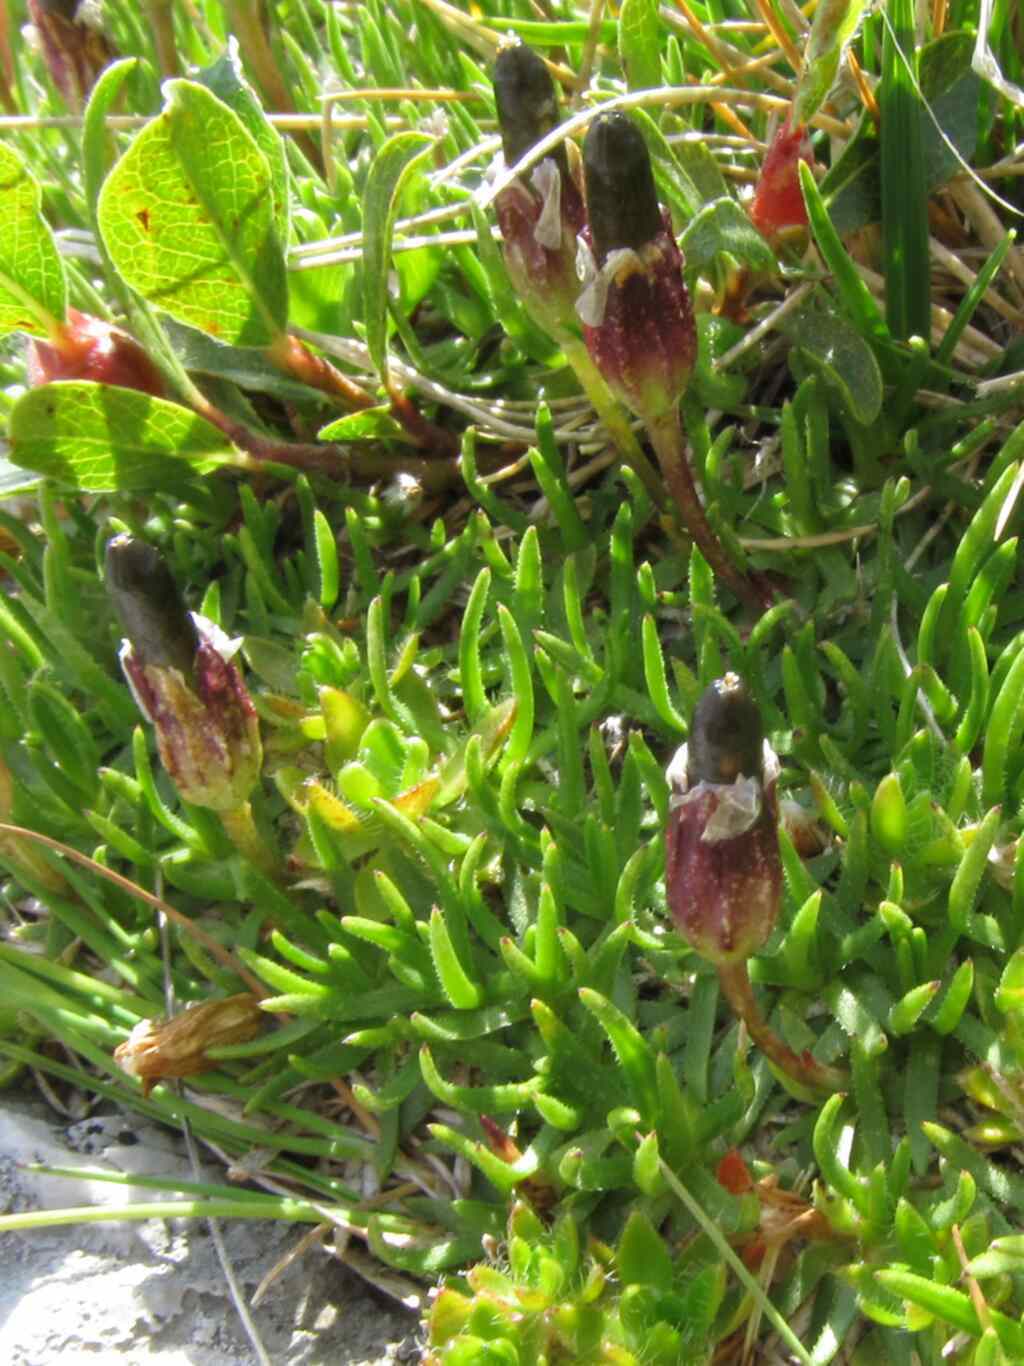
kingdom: Plantae
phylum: Tracheophyta
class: Magnoliopsida
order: Caryophyllales
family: Caryophyllaceae
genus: Silene
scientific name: Silene acaulis
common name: Moss campion
